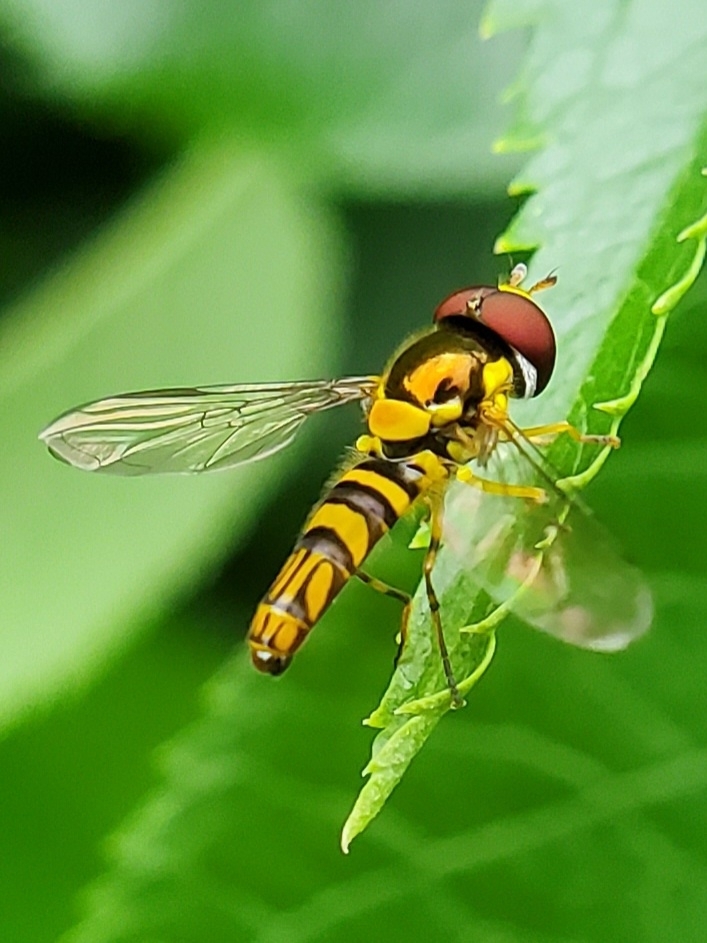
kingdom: Animalia
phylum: Arthropoda
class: Insecta
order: Diptera
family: Syrphidae
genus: Allograpta
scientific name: Allograpta obliqua
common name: Common oblique syrphid
